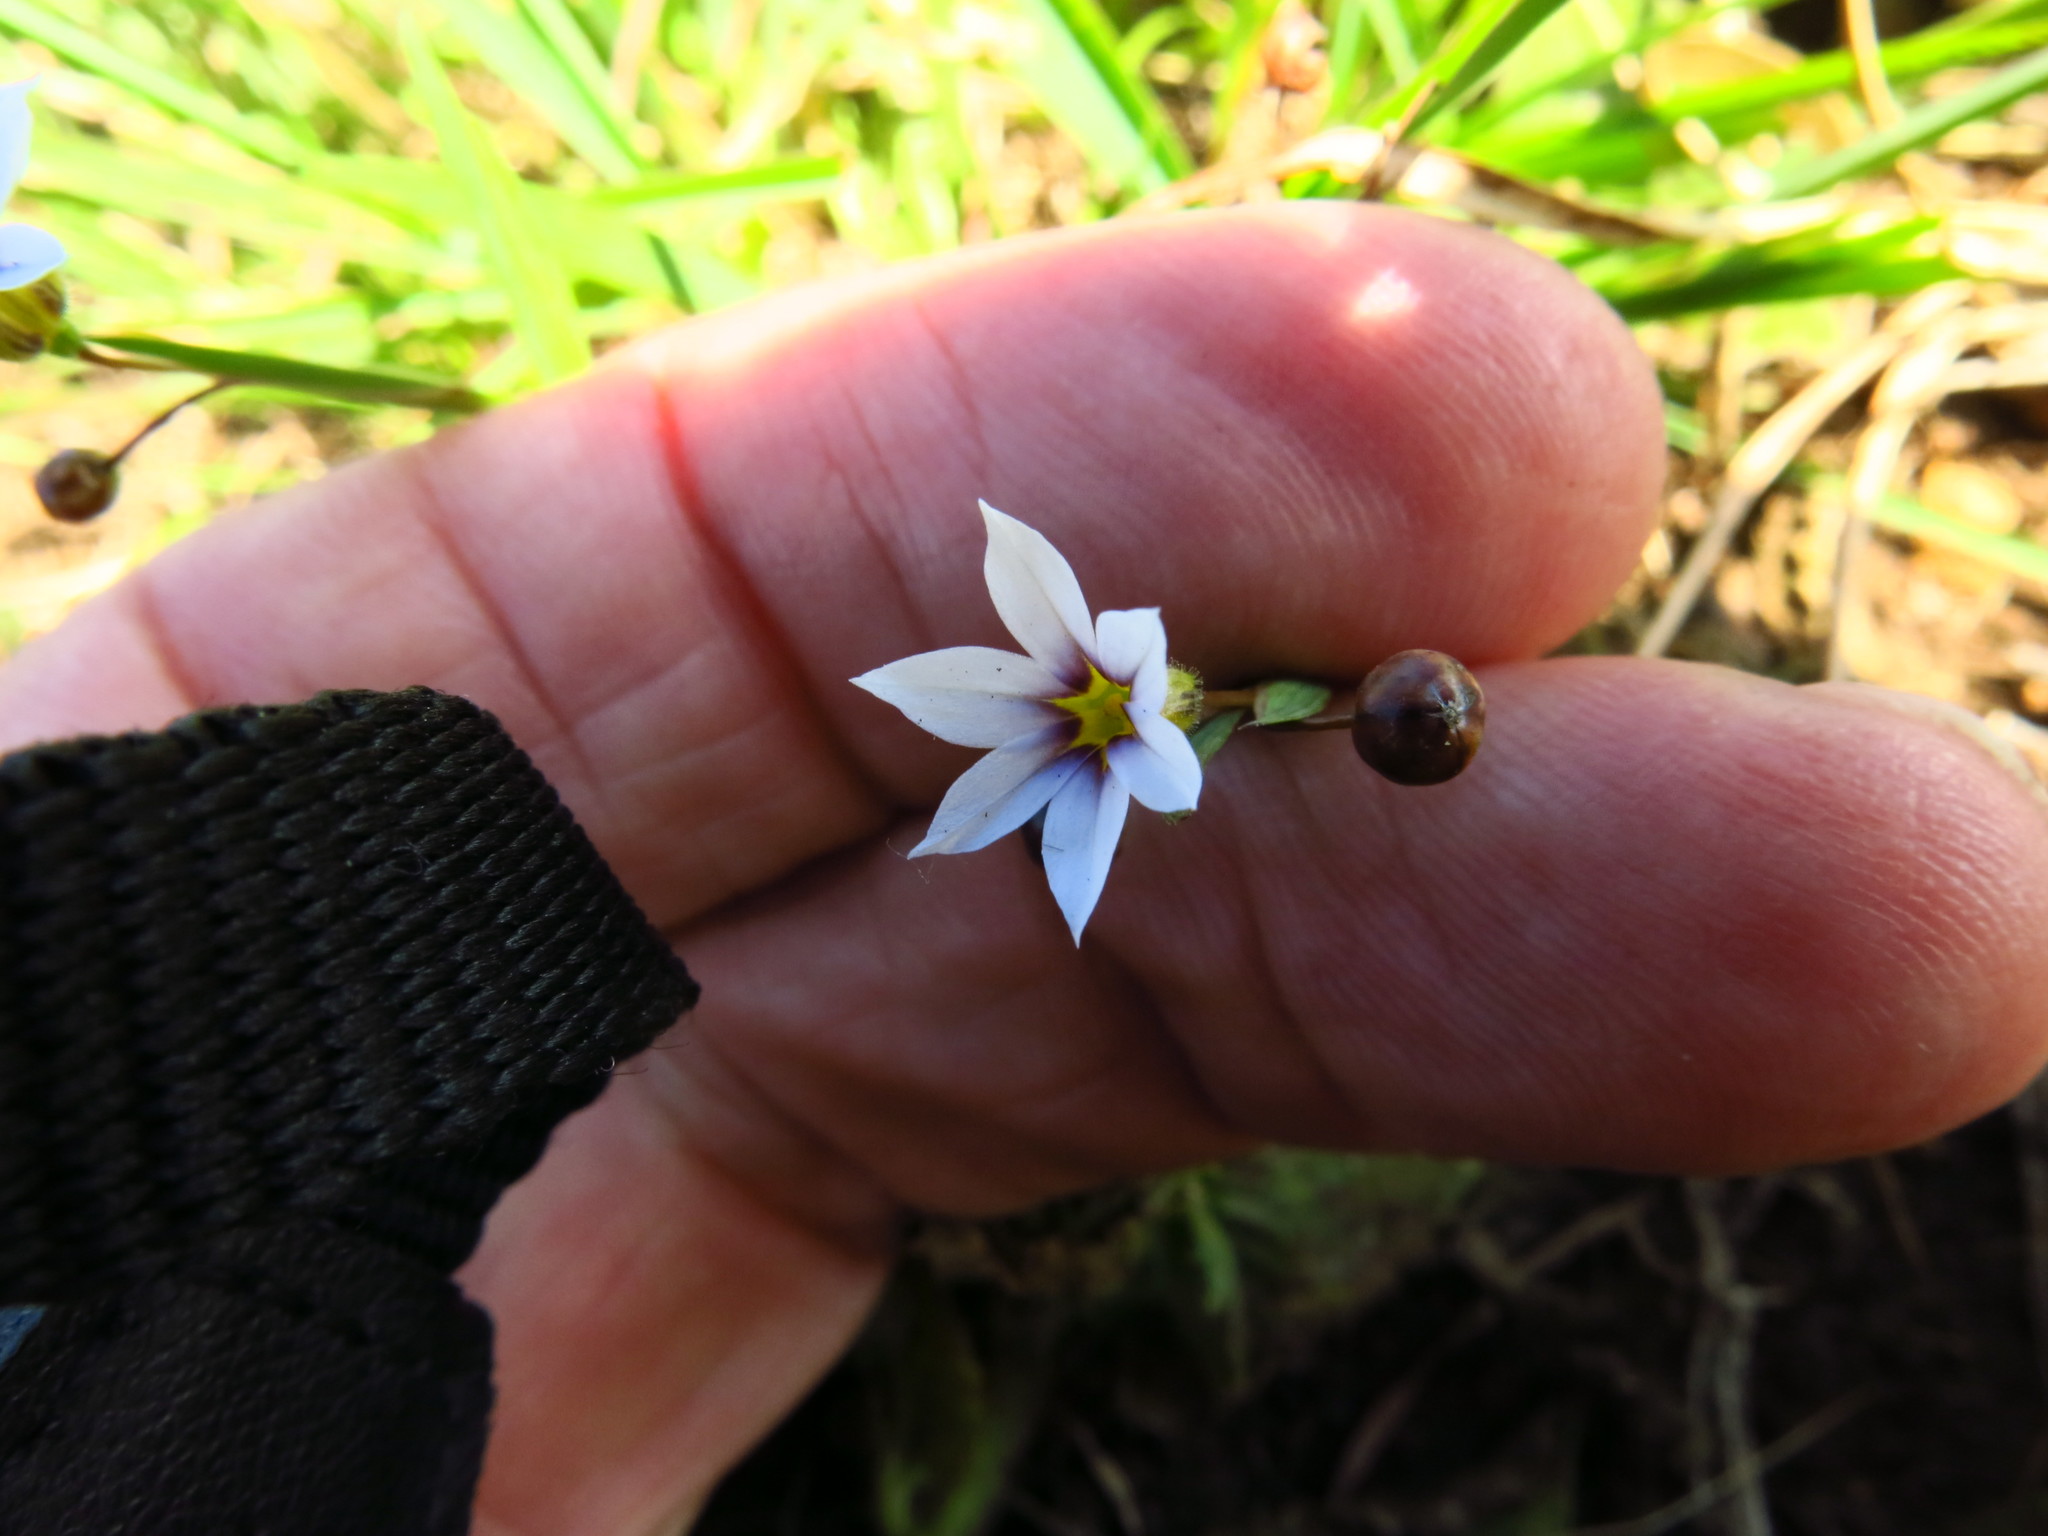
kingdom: Plantae
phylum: Tracheophyta
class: Liliopsida
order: Asparagales
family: Iridaceae
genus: Sisyrinchium
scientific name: Sisyrinchium micranthum
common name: Bermuda pigroot
